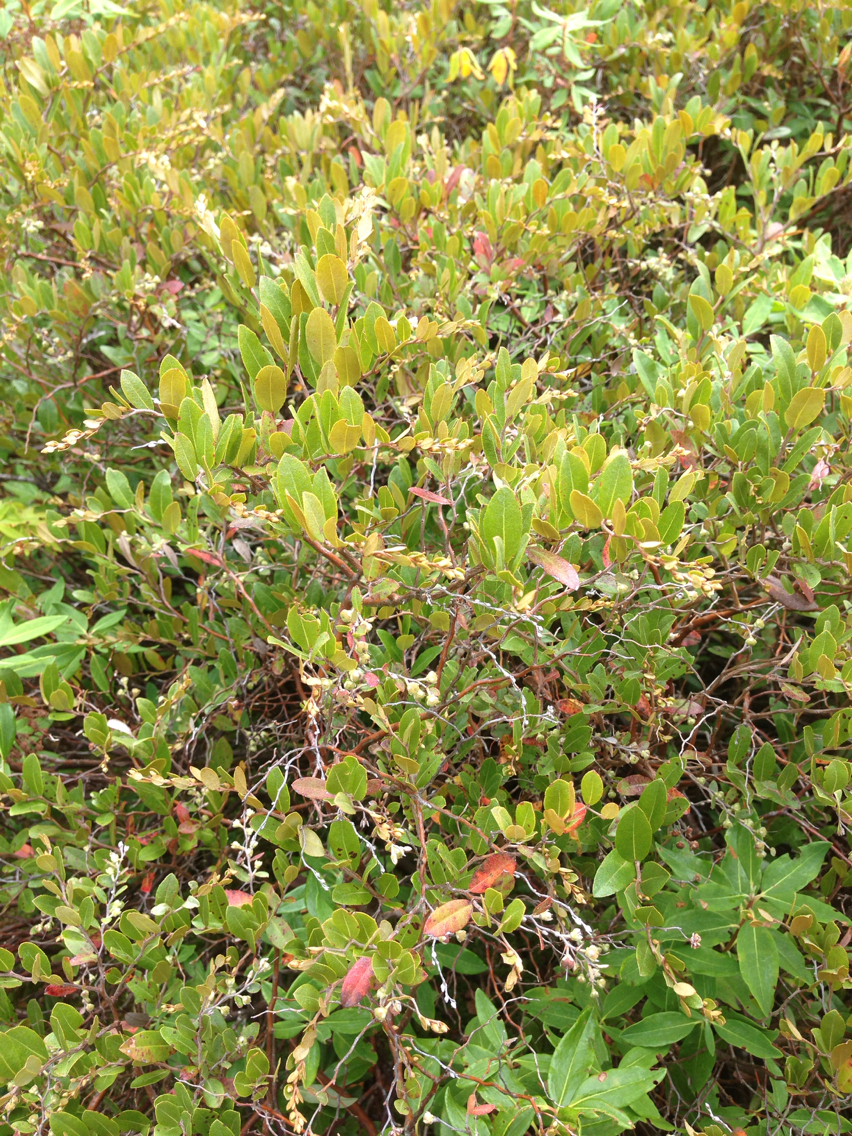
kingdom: Plantae
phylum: Tracheophyta
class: Magnoliopsida
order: Ericales
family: Ericaceae
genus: Chamaedaphne
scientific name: Chamaedaphne calyculata
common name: Leatherleaf
